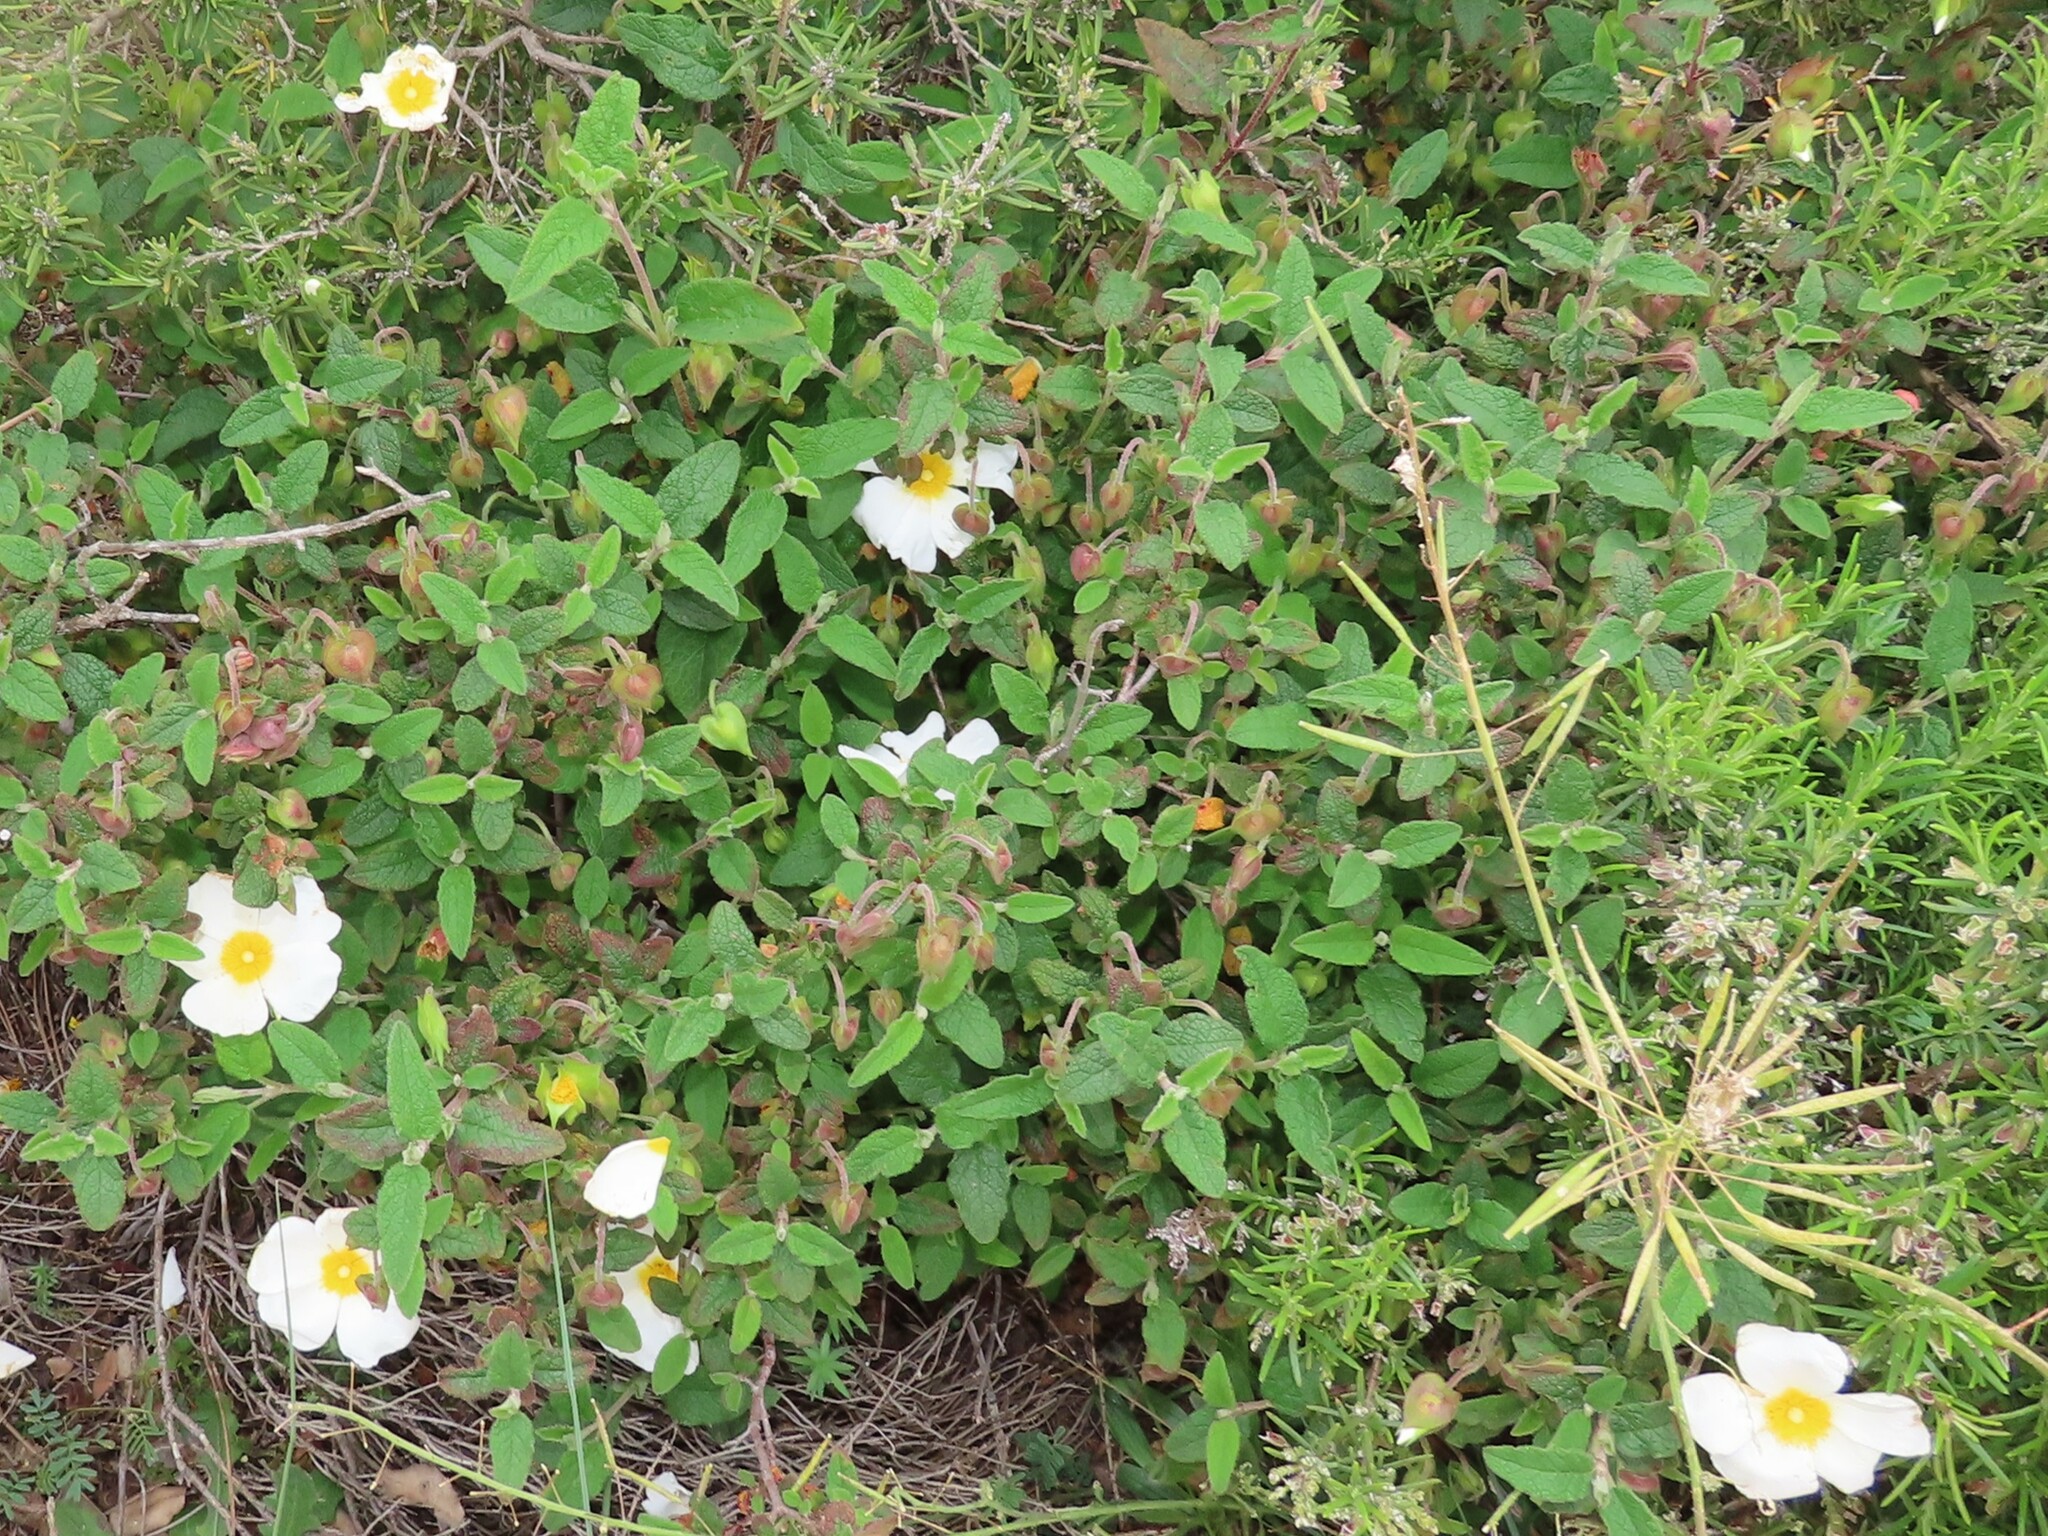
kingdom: Plantae
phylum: Tracheophyta
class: Magnoliopsida
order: Malvales
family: Cistaceae
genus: Cistus
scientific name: Cistus salviifolius
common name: Salvia cistus
